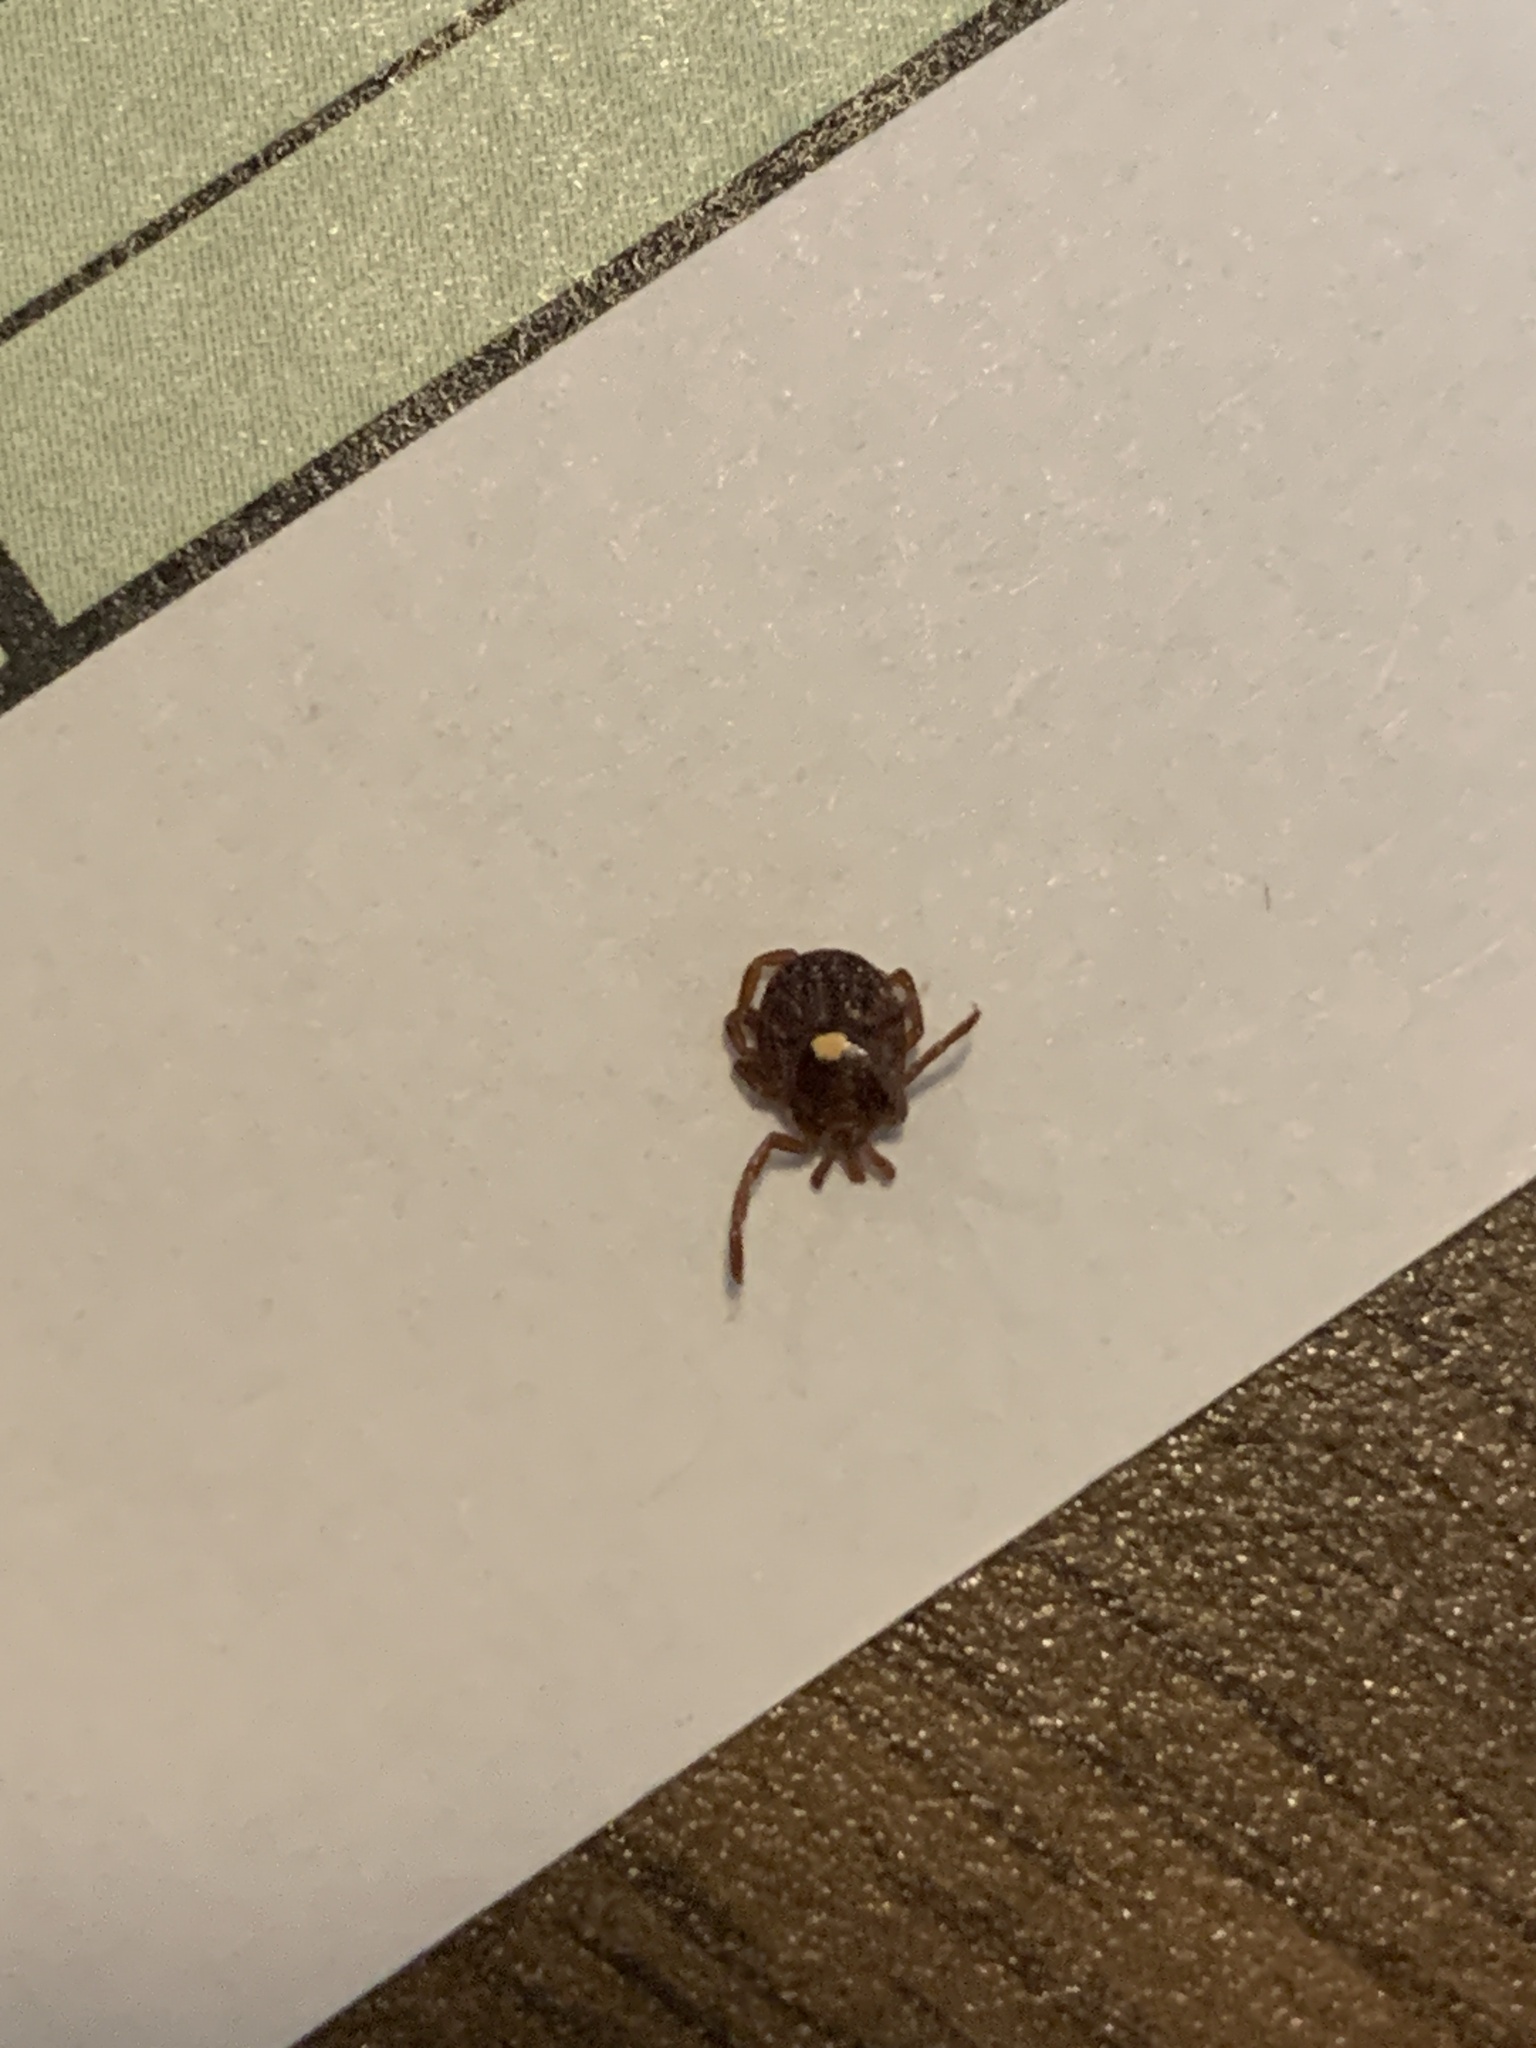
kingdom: Animalia
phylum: Arthropoda
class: Arachnida
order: Ixodida
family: Ixodidae
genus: Amblyomma
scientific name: Amblyomma americanum
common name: Lone star tick
